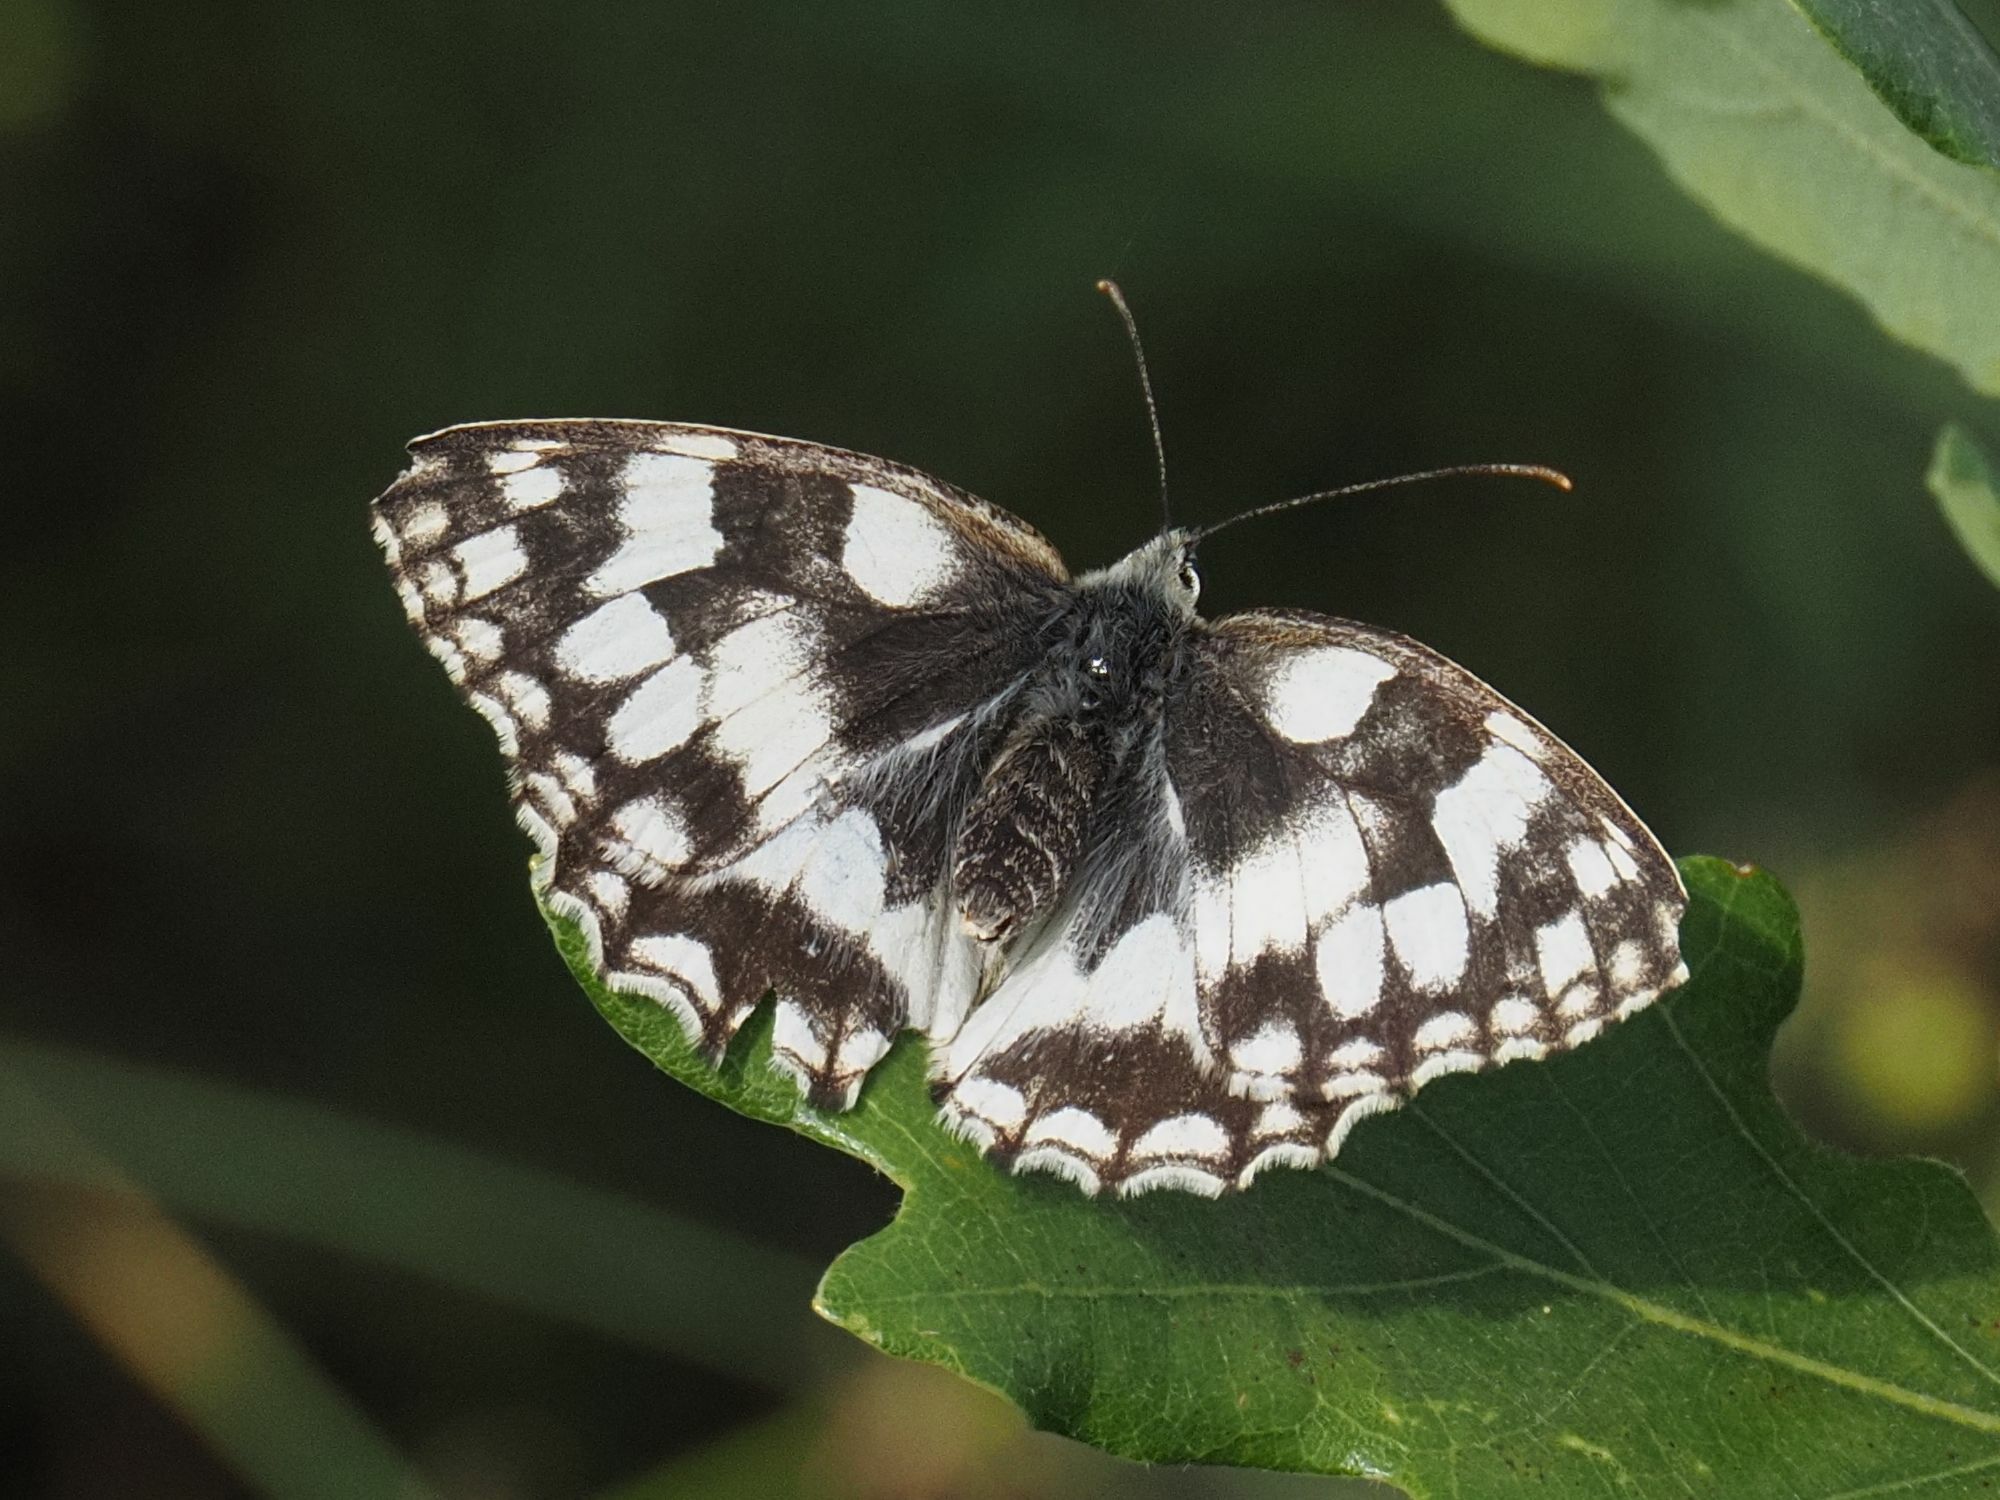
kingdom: Animalia
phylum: Arthropoda
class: Insecta
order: Lepidoptera
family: Nymphalidae
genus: Melanargia
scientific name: Melanargia galathea
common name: Marbled white
